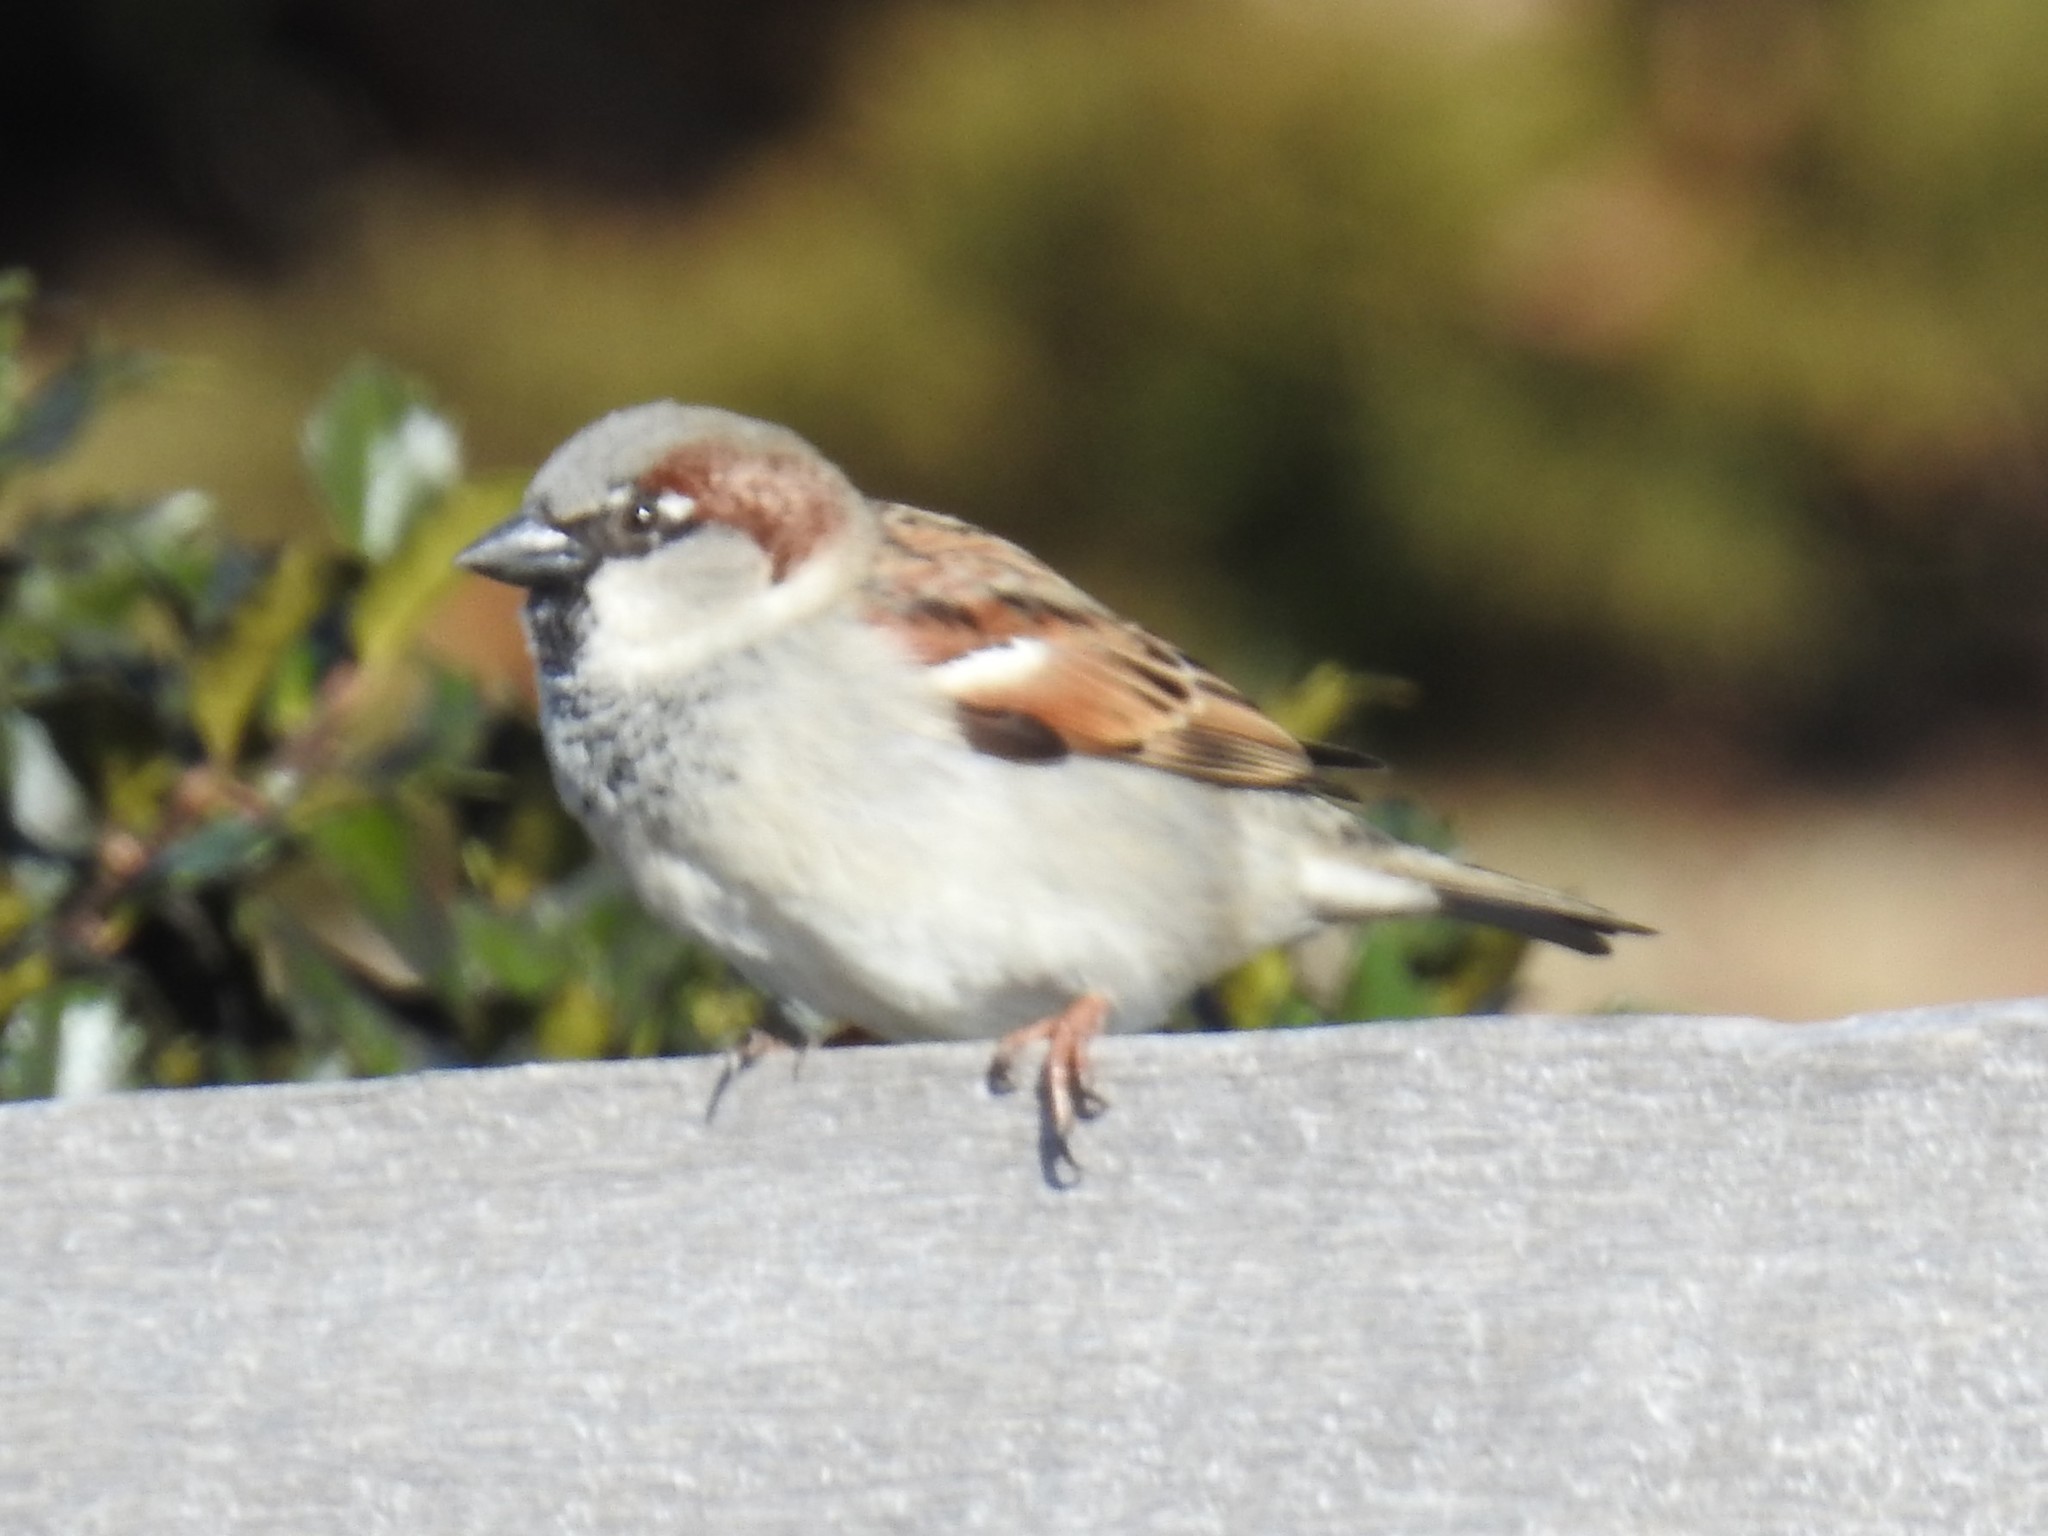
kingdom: Animalia
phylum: Chordata
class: Aves
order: Passeriformes
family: Passeridae
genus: Passer
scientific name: Passer domesticus
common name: House sparrow
